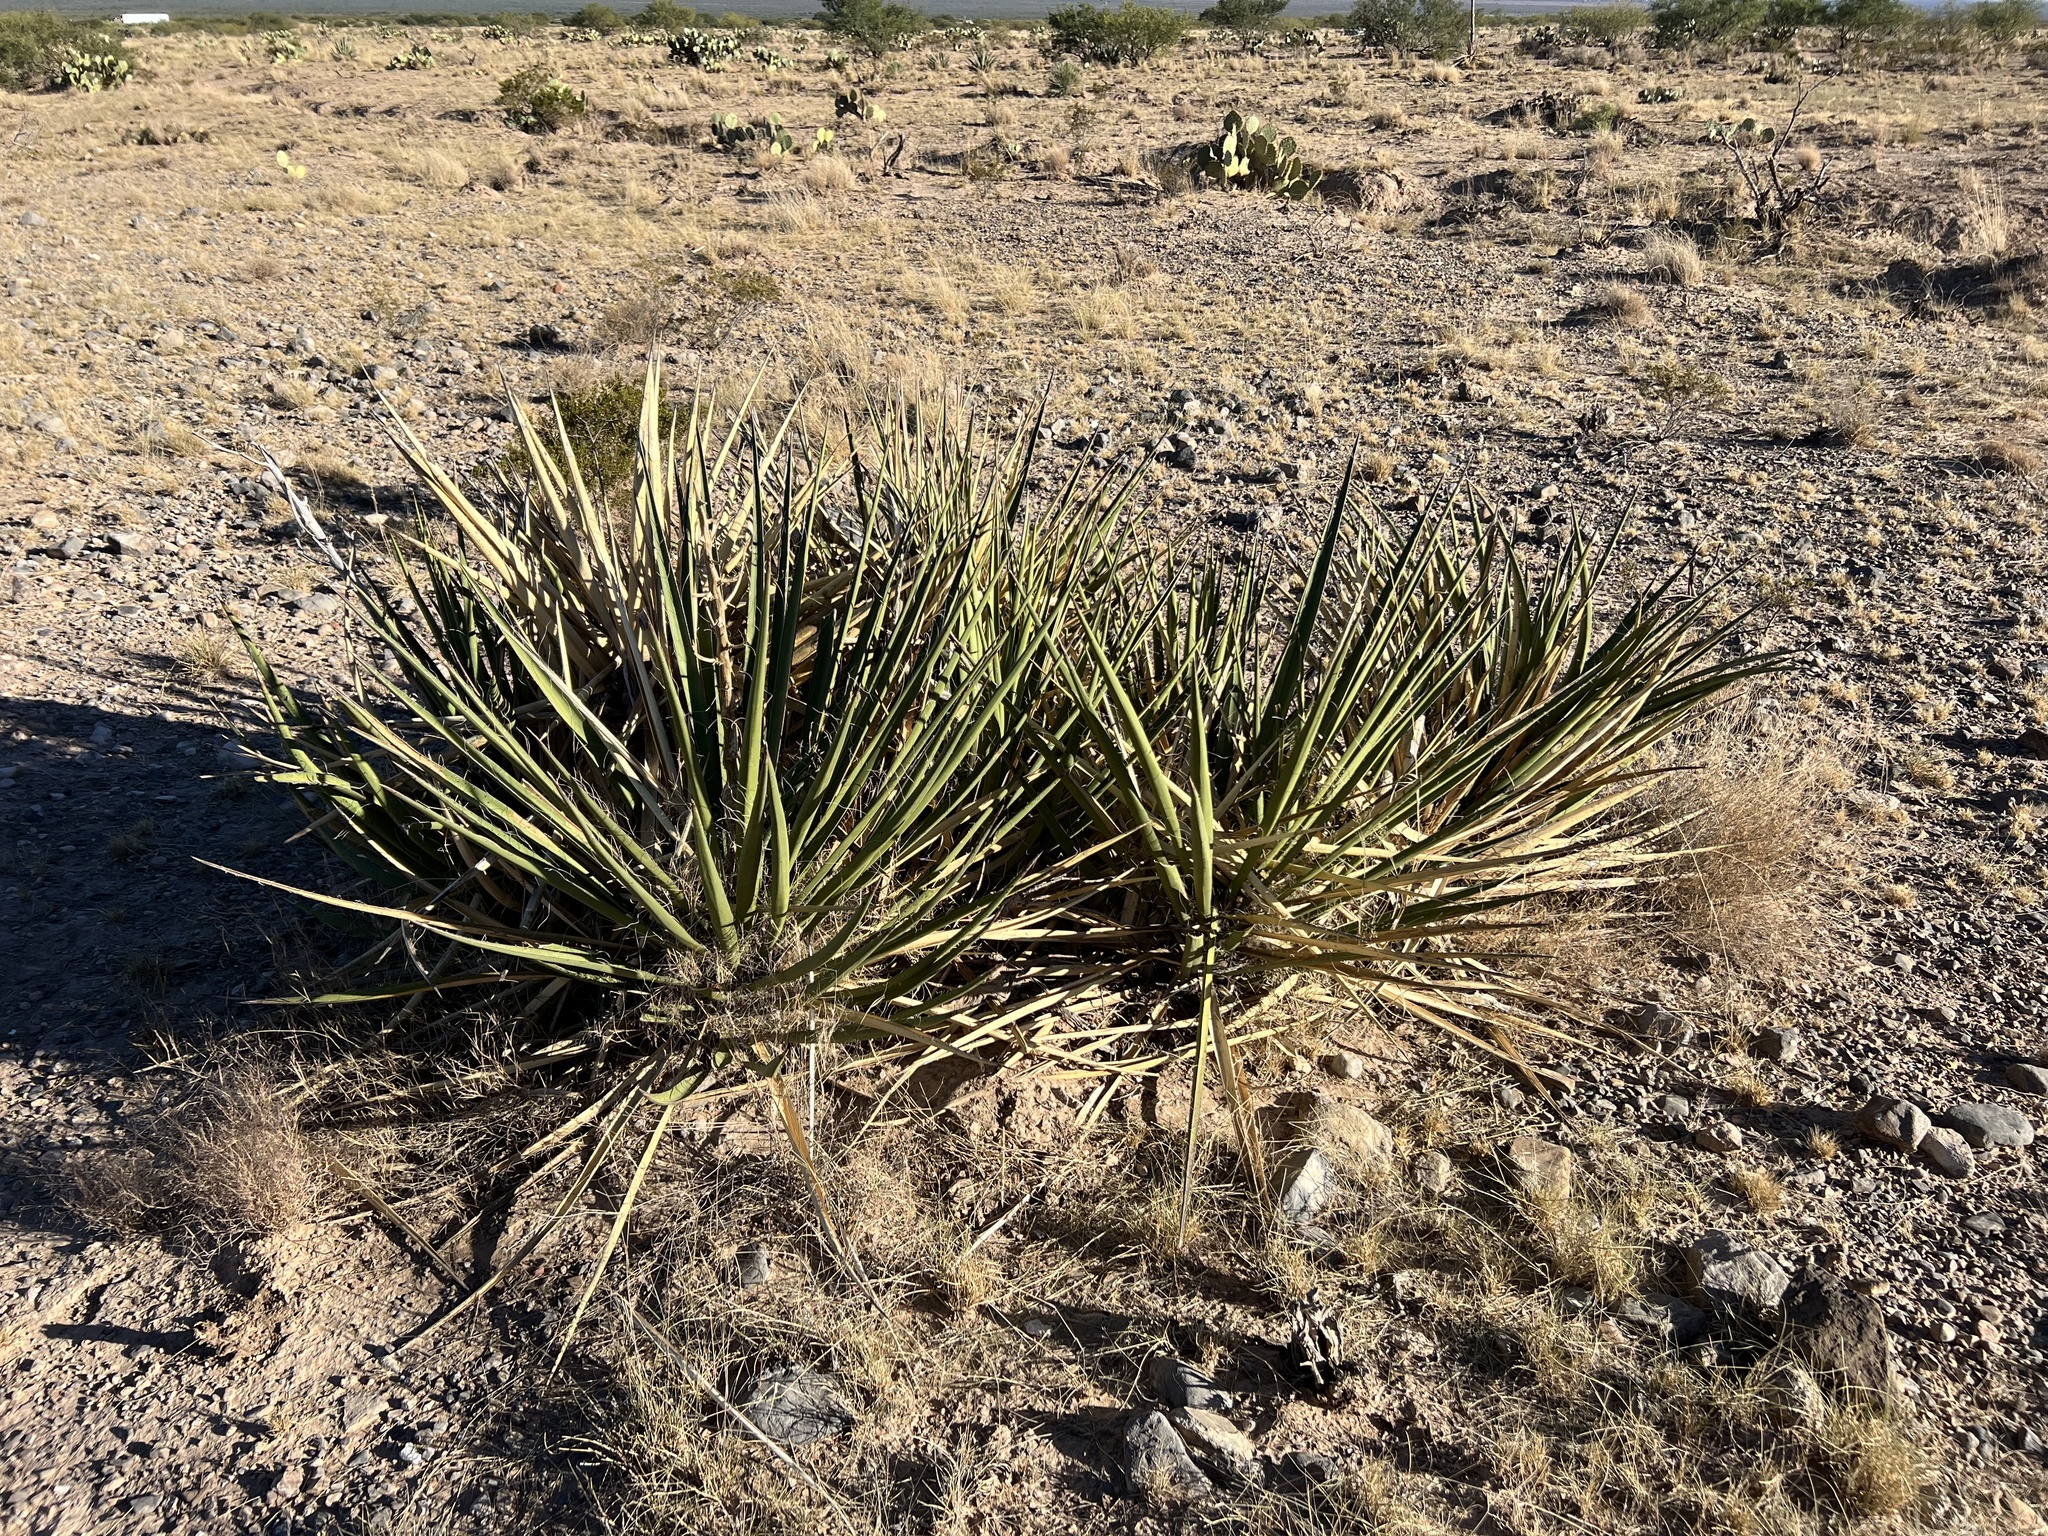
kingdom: Plantae
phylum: Tracheophyta
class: Liliopsida
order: Asparagales
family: Asparagaceae
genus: Yucca
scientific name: Yucca baccata
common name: Banana yucca
